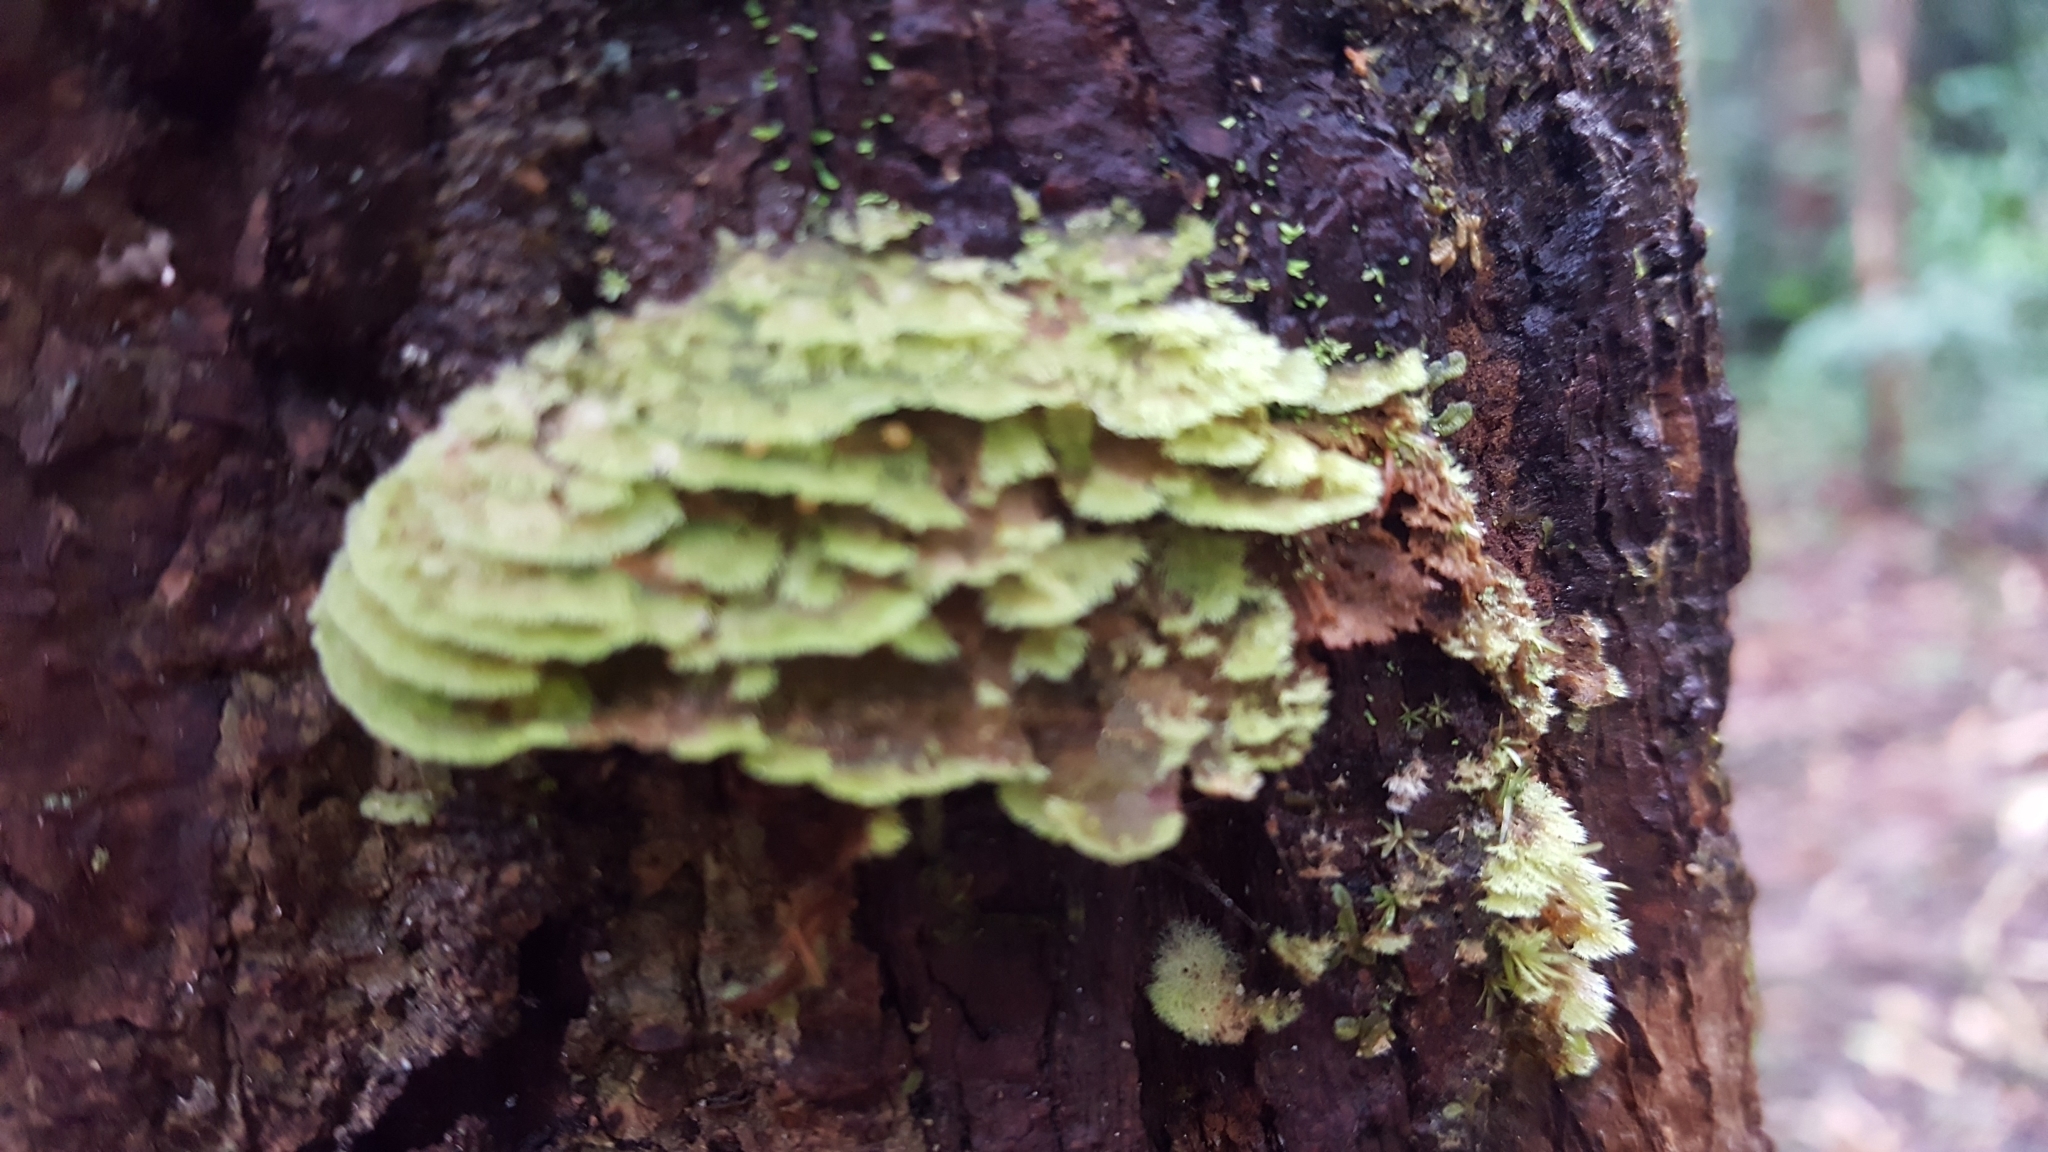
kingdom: Fungi
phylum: Ascomycota
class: Lecanoromycetes
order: Ostropales
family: Coenogoniaceae
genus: Coenogonium
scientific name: Coenogonium
